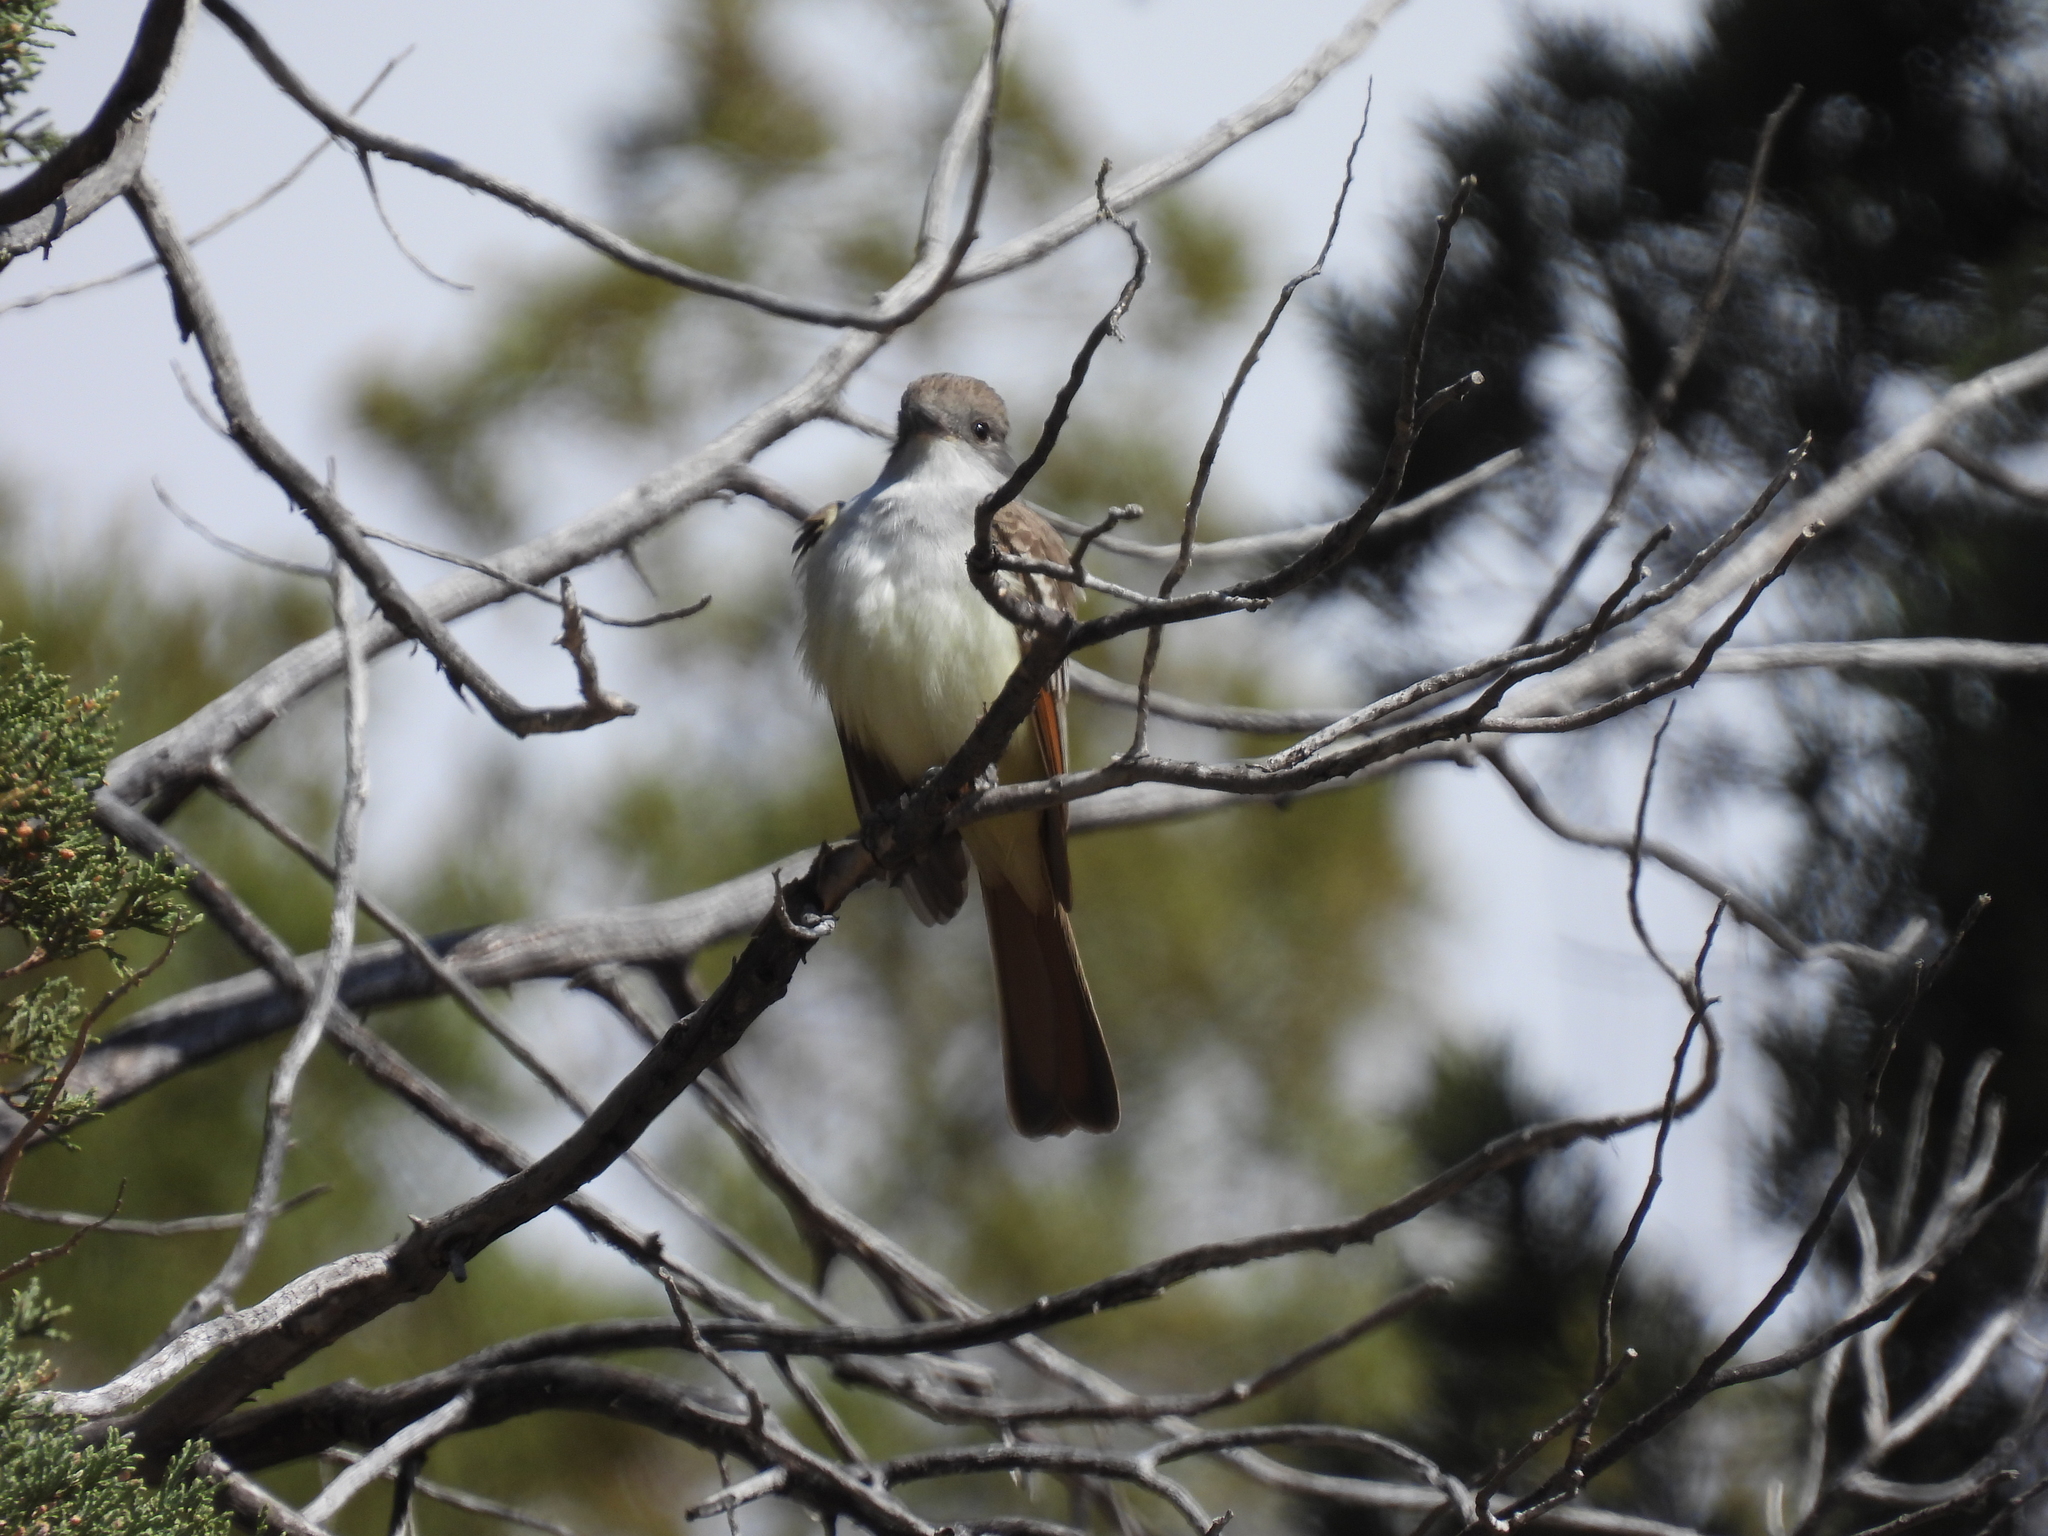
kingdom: Animalia
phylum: Chordata
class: Aves
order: Passeriformes
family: Tyrannidae
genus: Myiarchus
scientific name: Myiarchus cinerascens
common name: Ash-throated flycatcher
